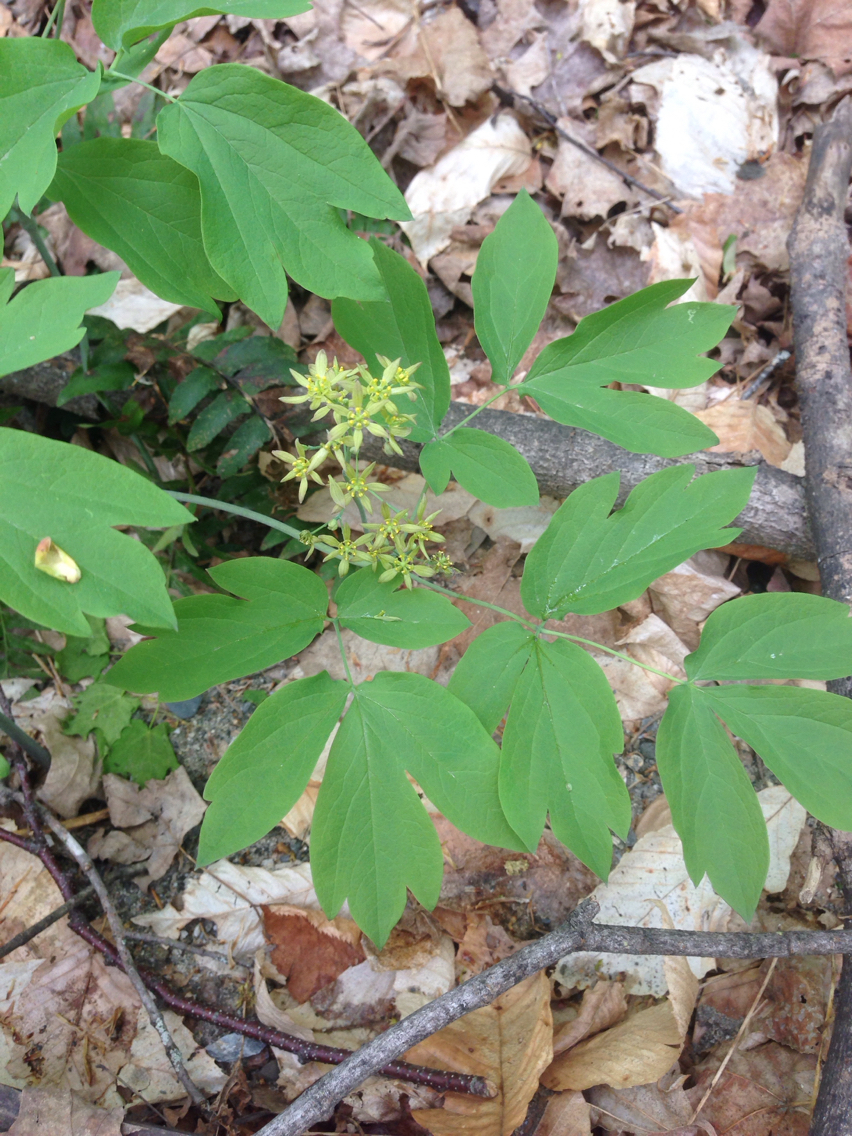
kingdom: Plantae
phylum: Tracheophyta
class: Magnoliopsida
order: Ranunculales
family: Berberidaceae
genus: Caulophyllum
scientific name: Caulophyllum thalictroides
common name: Blue cohosh
